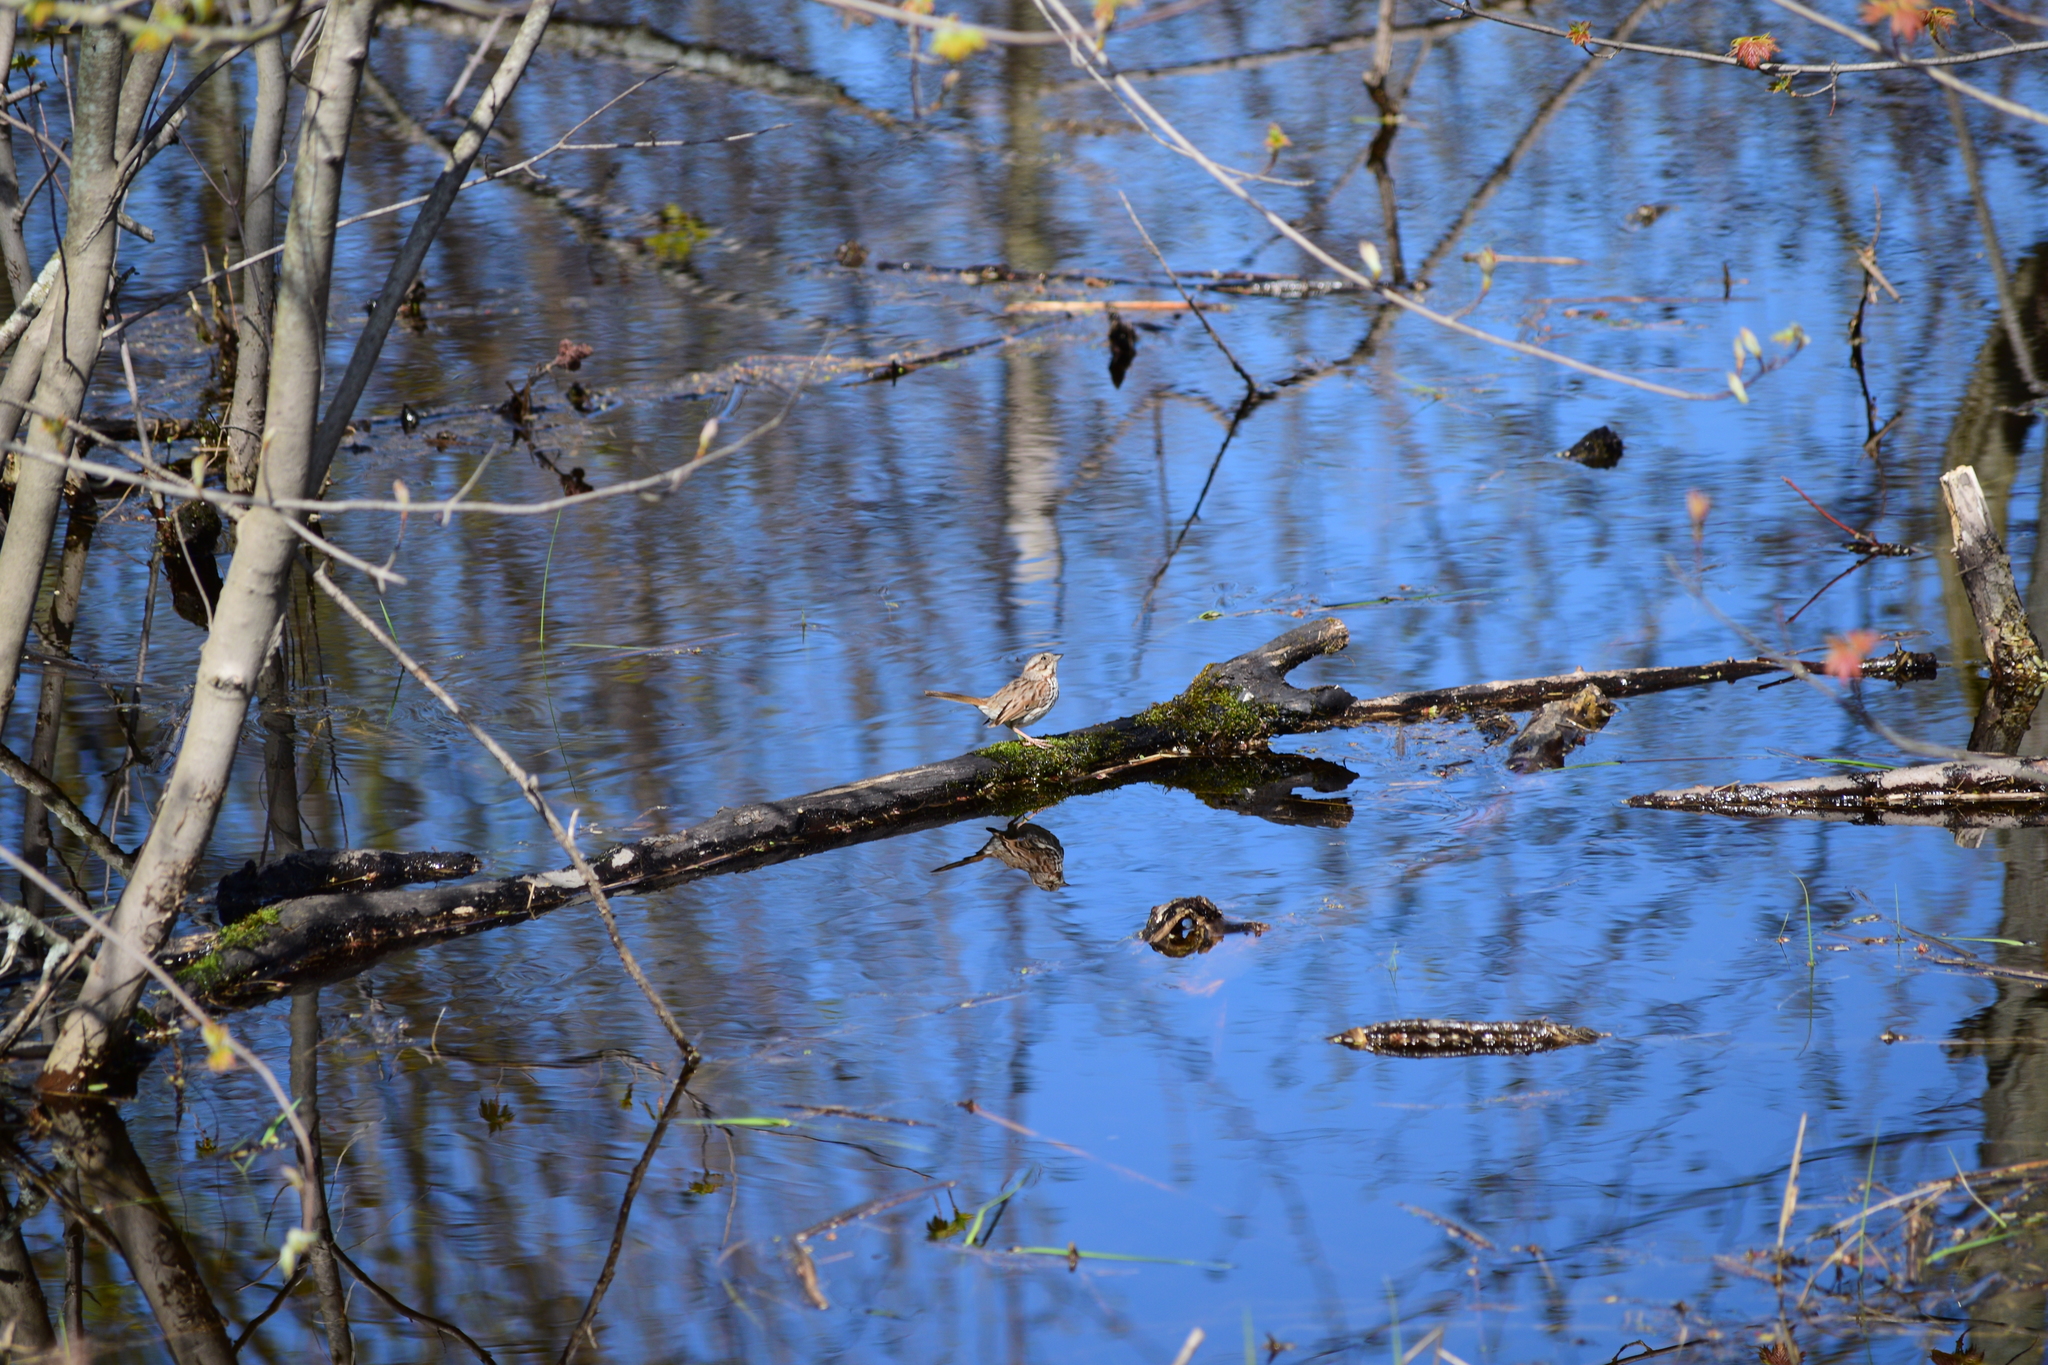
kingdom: Animalia
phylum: Chordata
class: Aves
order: Passeriformes
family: Passerellidae
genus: Melospiza
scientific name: Melospiza melodia
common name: Song sparrow
